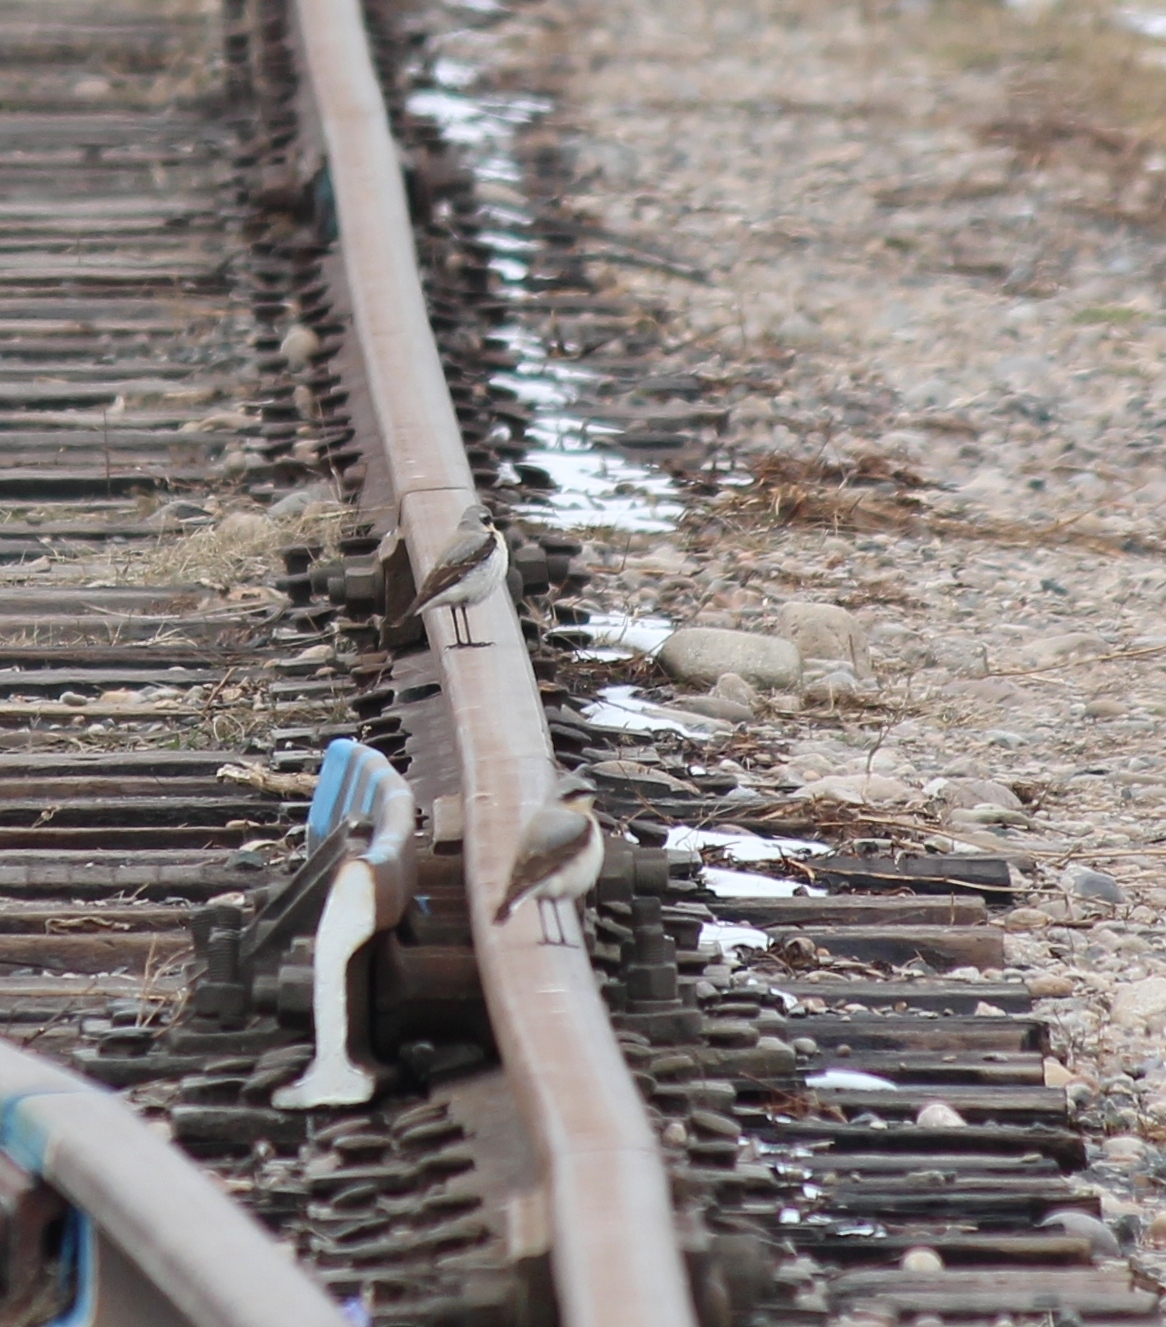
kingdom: Animalia
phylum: Chordata
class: Aves
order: Passeriformes
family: Muscicapidae
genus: Oenanthe
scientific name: Oenanthe oenanthe
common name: Northern wheatear
